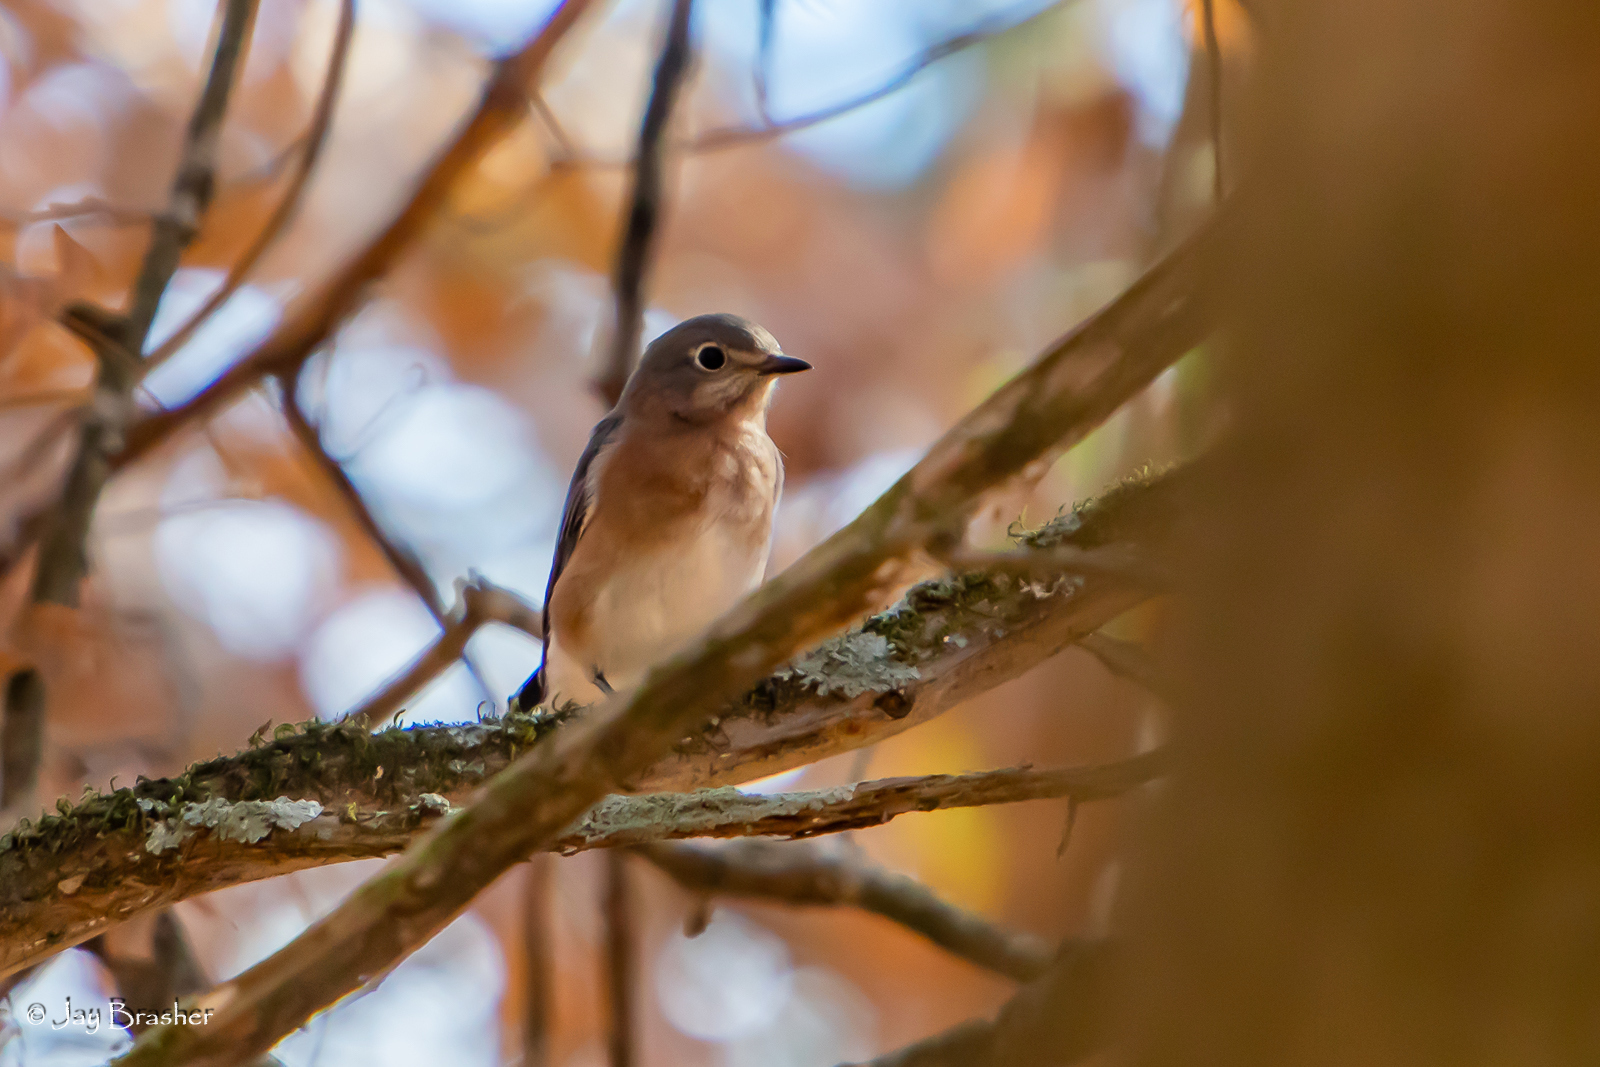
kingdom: Animalia
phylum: Chordata
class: Aves
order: Passeriformes
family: Turdidae
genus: Sialia
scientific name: Sialia sialis
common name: Eastern bluebird
